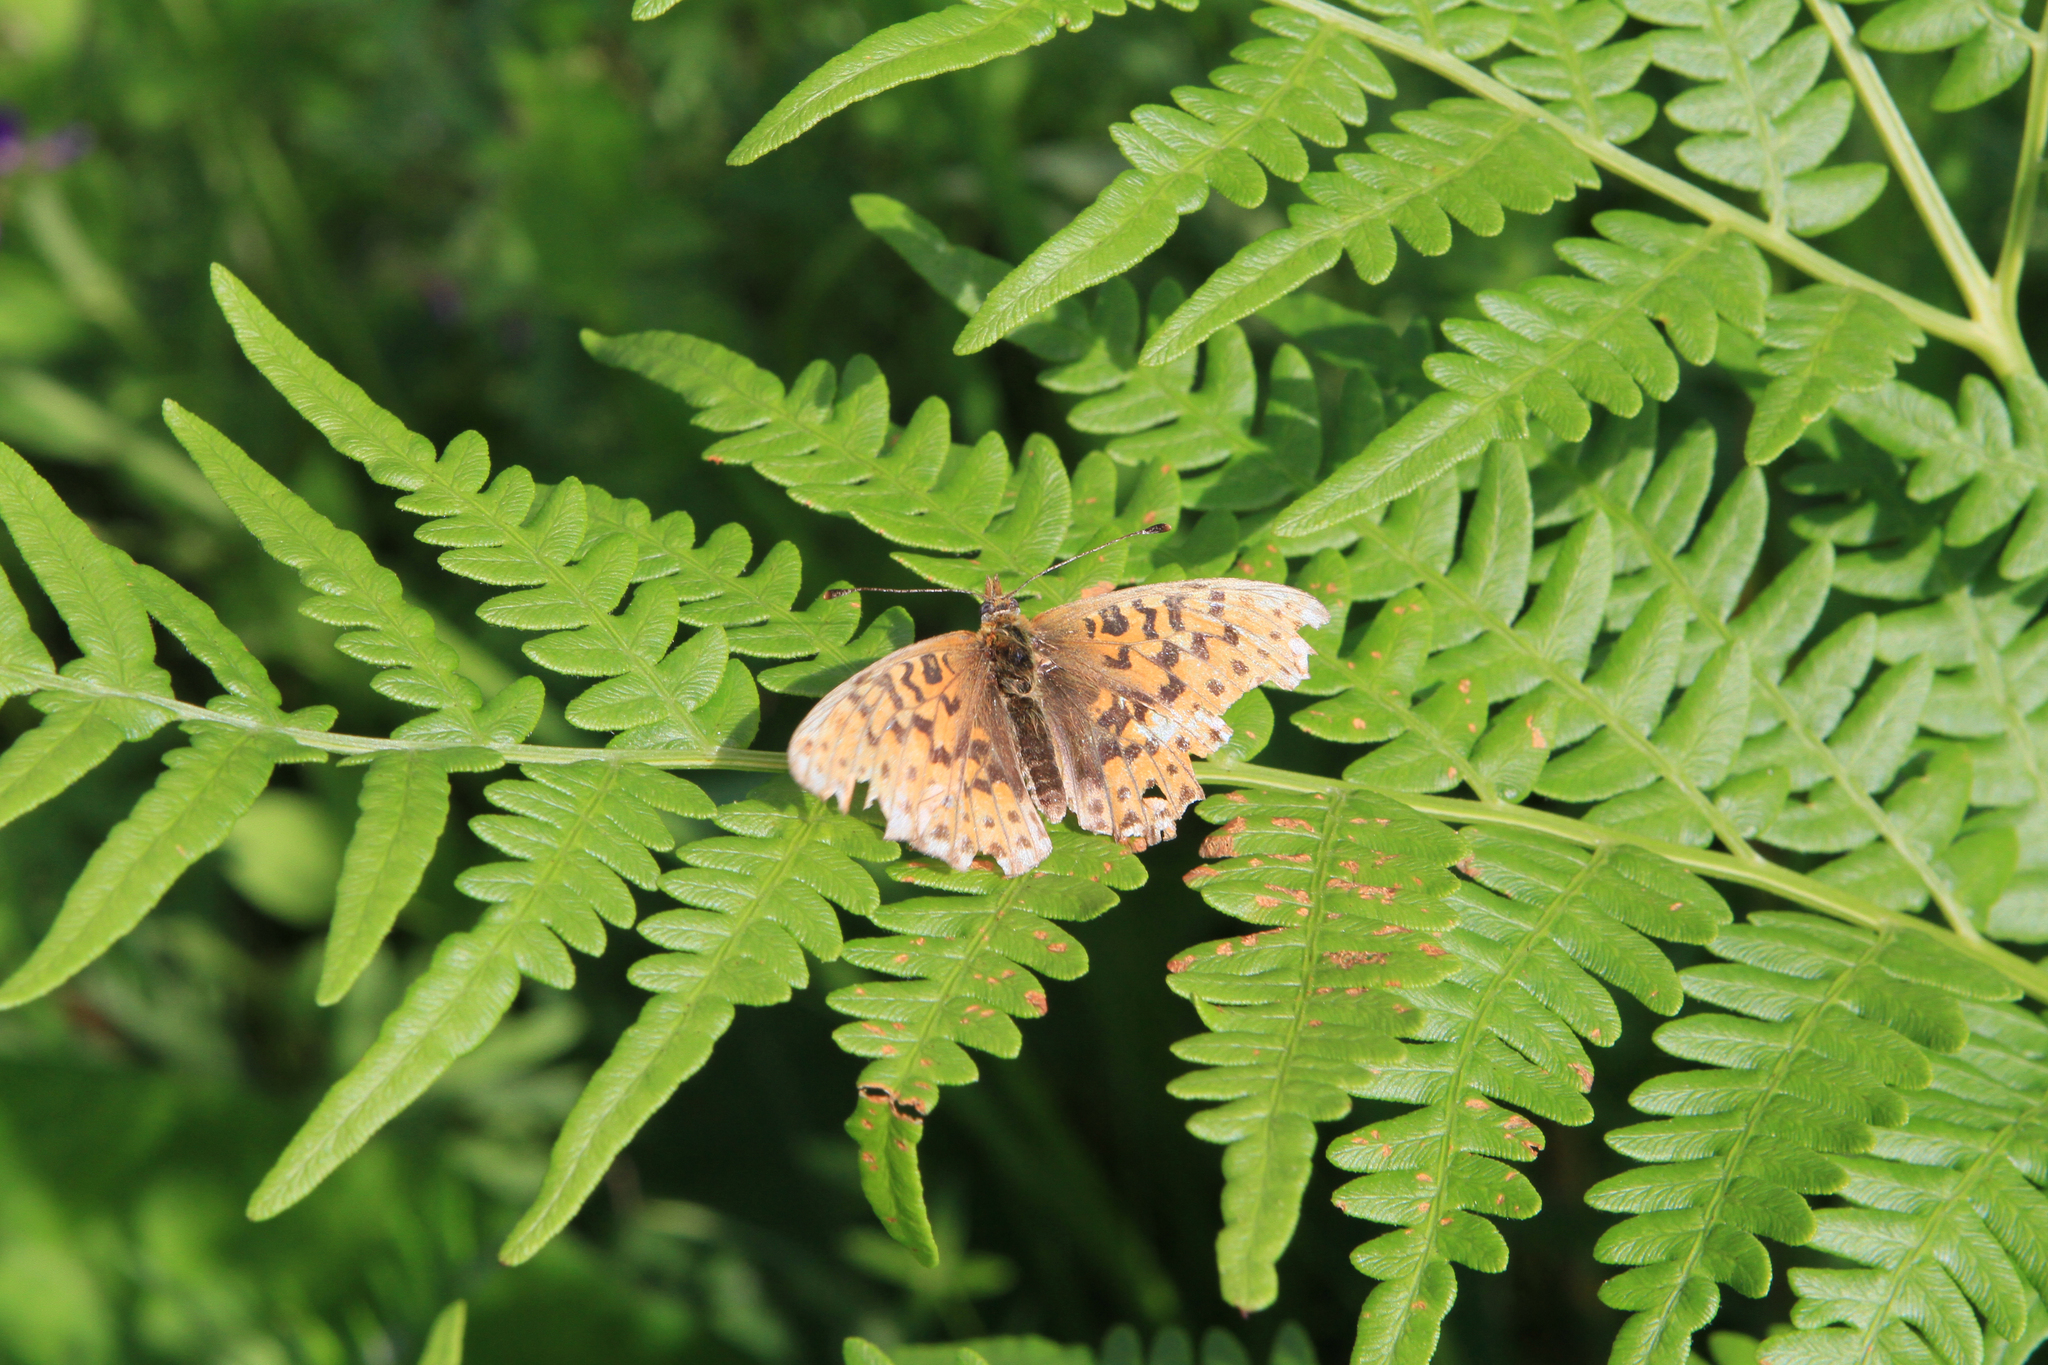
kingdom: Animalia
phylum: Arthropoda
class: Insecta
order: Lepidoptera
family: Nymphalidae
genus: Clossiana
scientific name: Clossiana euphrosyne
